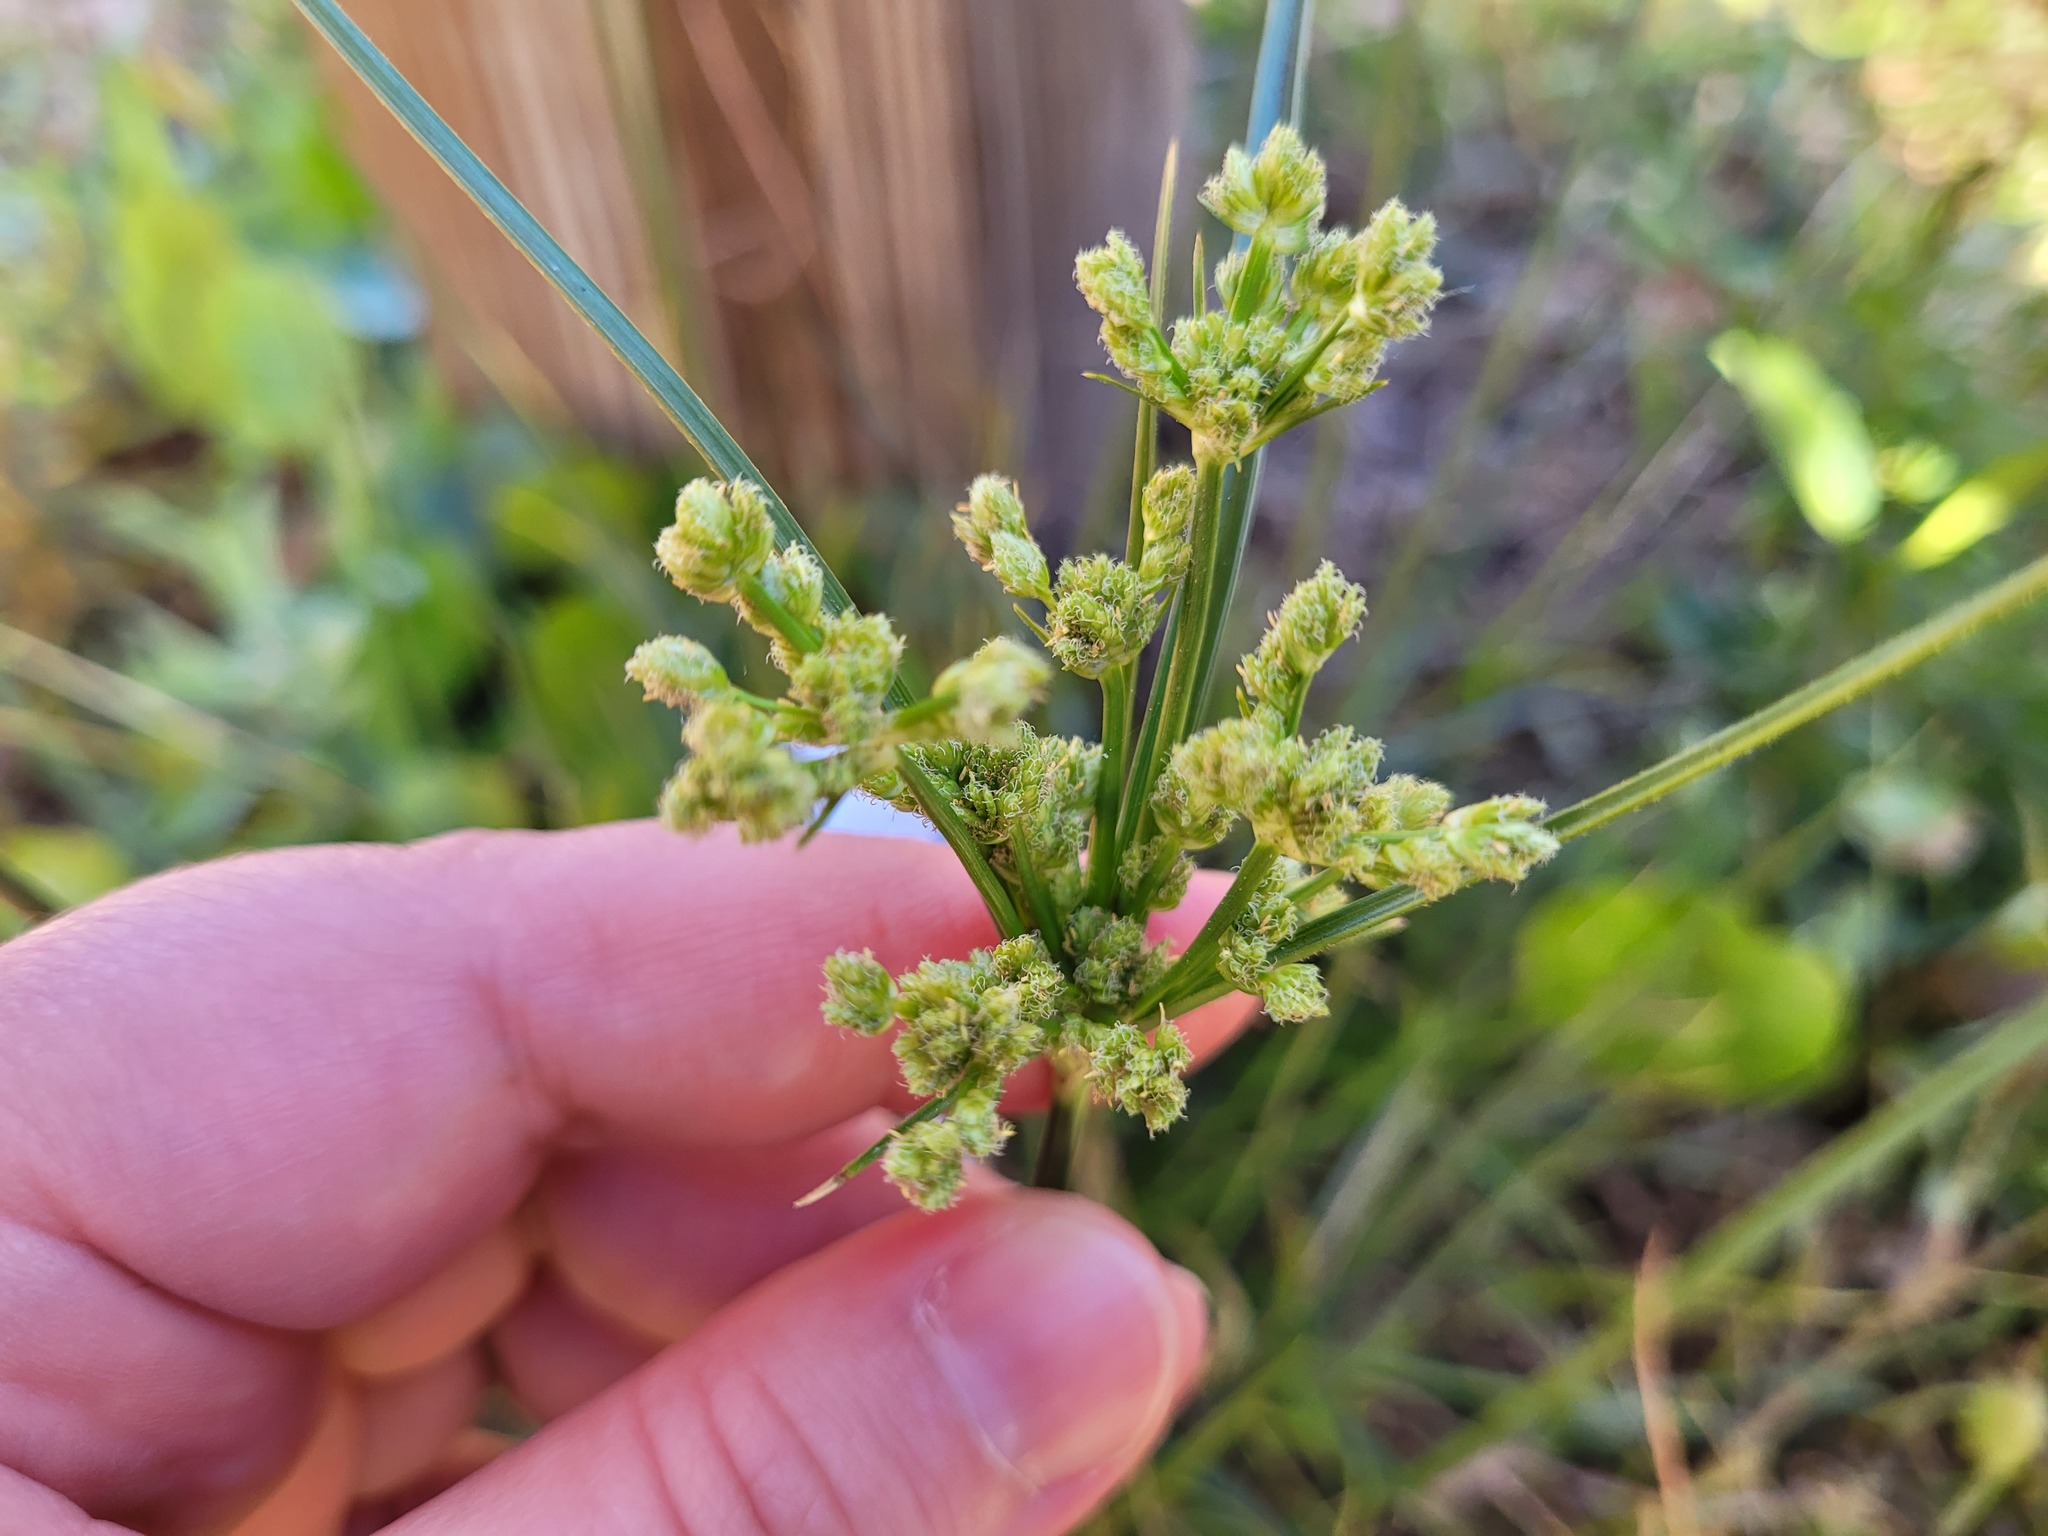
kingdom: Plantae
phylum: Tracheophyta
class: Liliopsida
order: Poales
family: Cyperaceae
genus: Cyperus
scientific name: Cyperus surinamensis
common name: Tropical flat sedge
